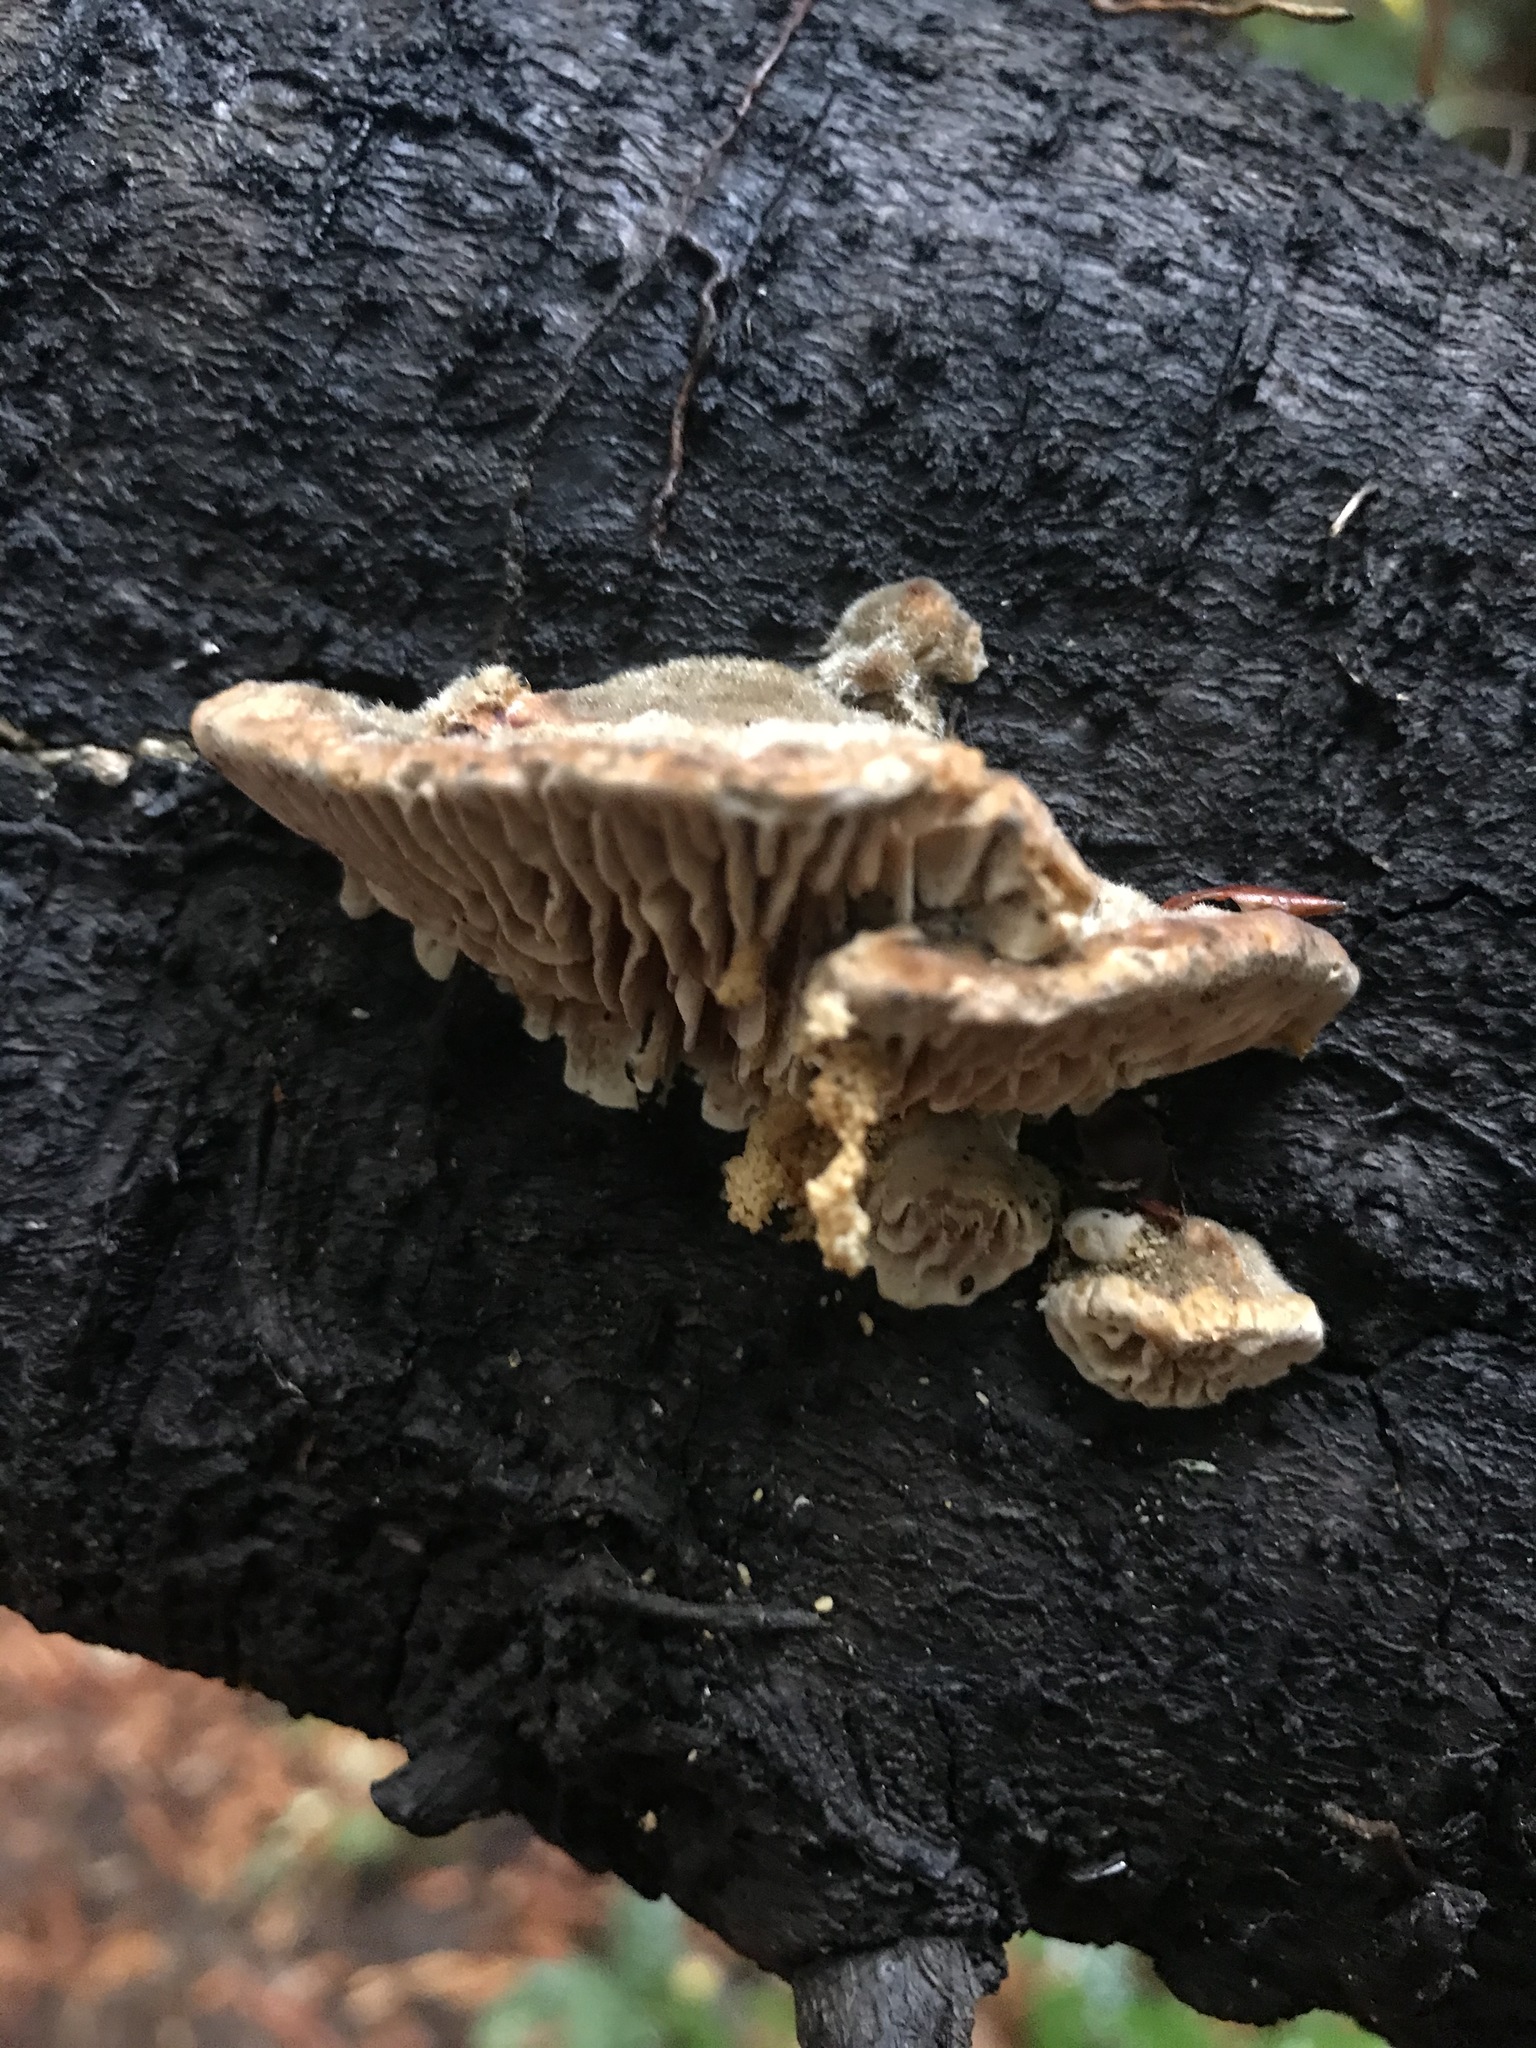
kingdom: Fungi
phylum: Basidiomycota
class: Agaricomycetes
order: Polyporales
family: Polyporaceae
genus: Lenzites
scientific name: Lenzites betulinus
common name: Birch mazegill
